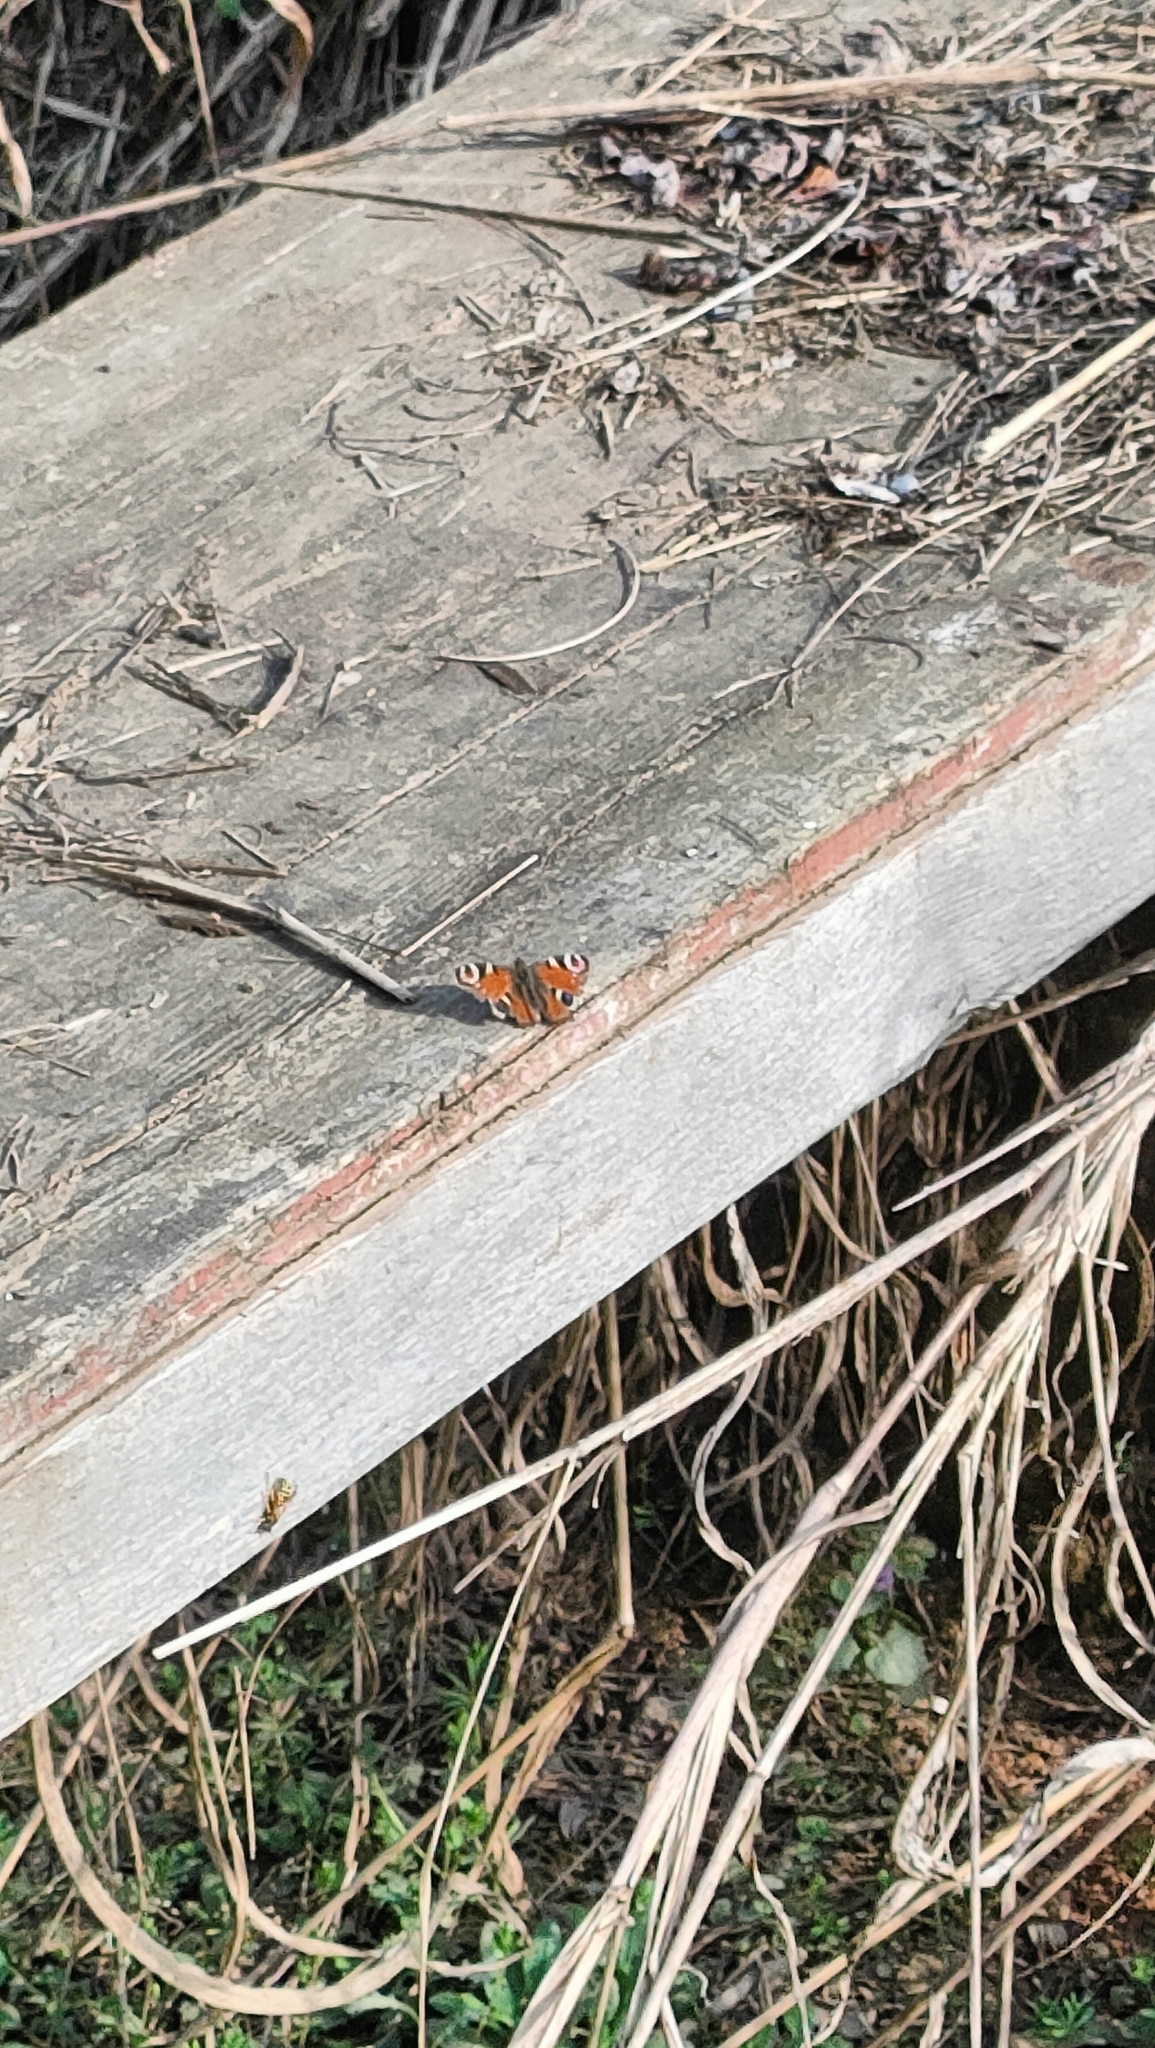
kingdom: Animalia
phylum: Arthropoda
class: Insecta
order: Lepidoptera
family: Nymphalidae
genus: Aglais
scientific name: Aglais io
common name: Peacock
